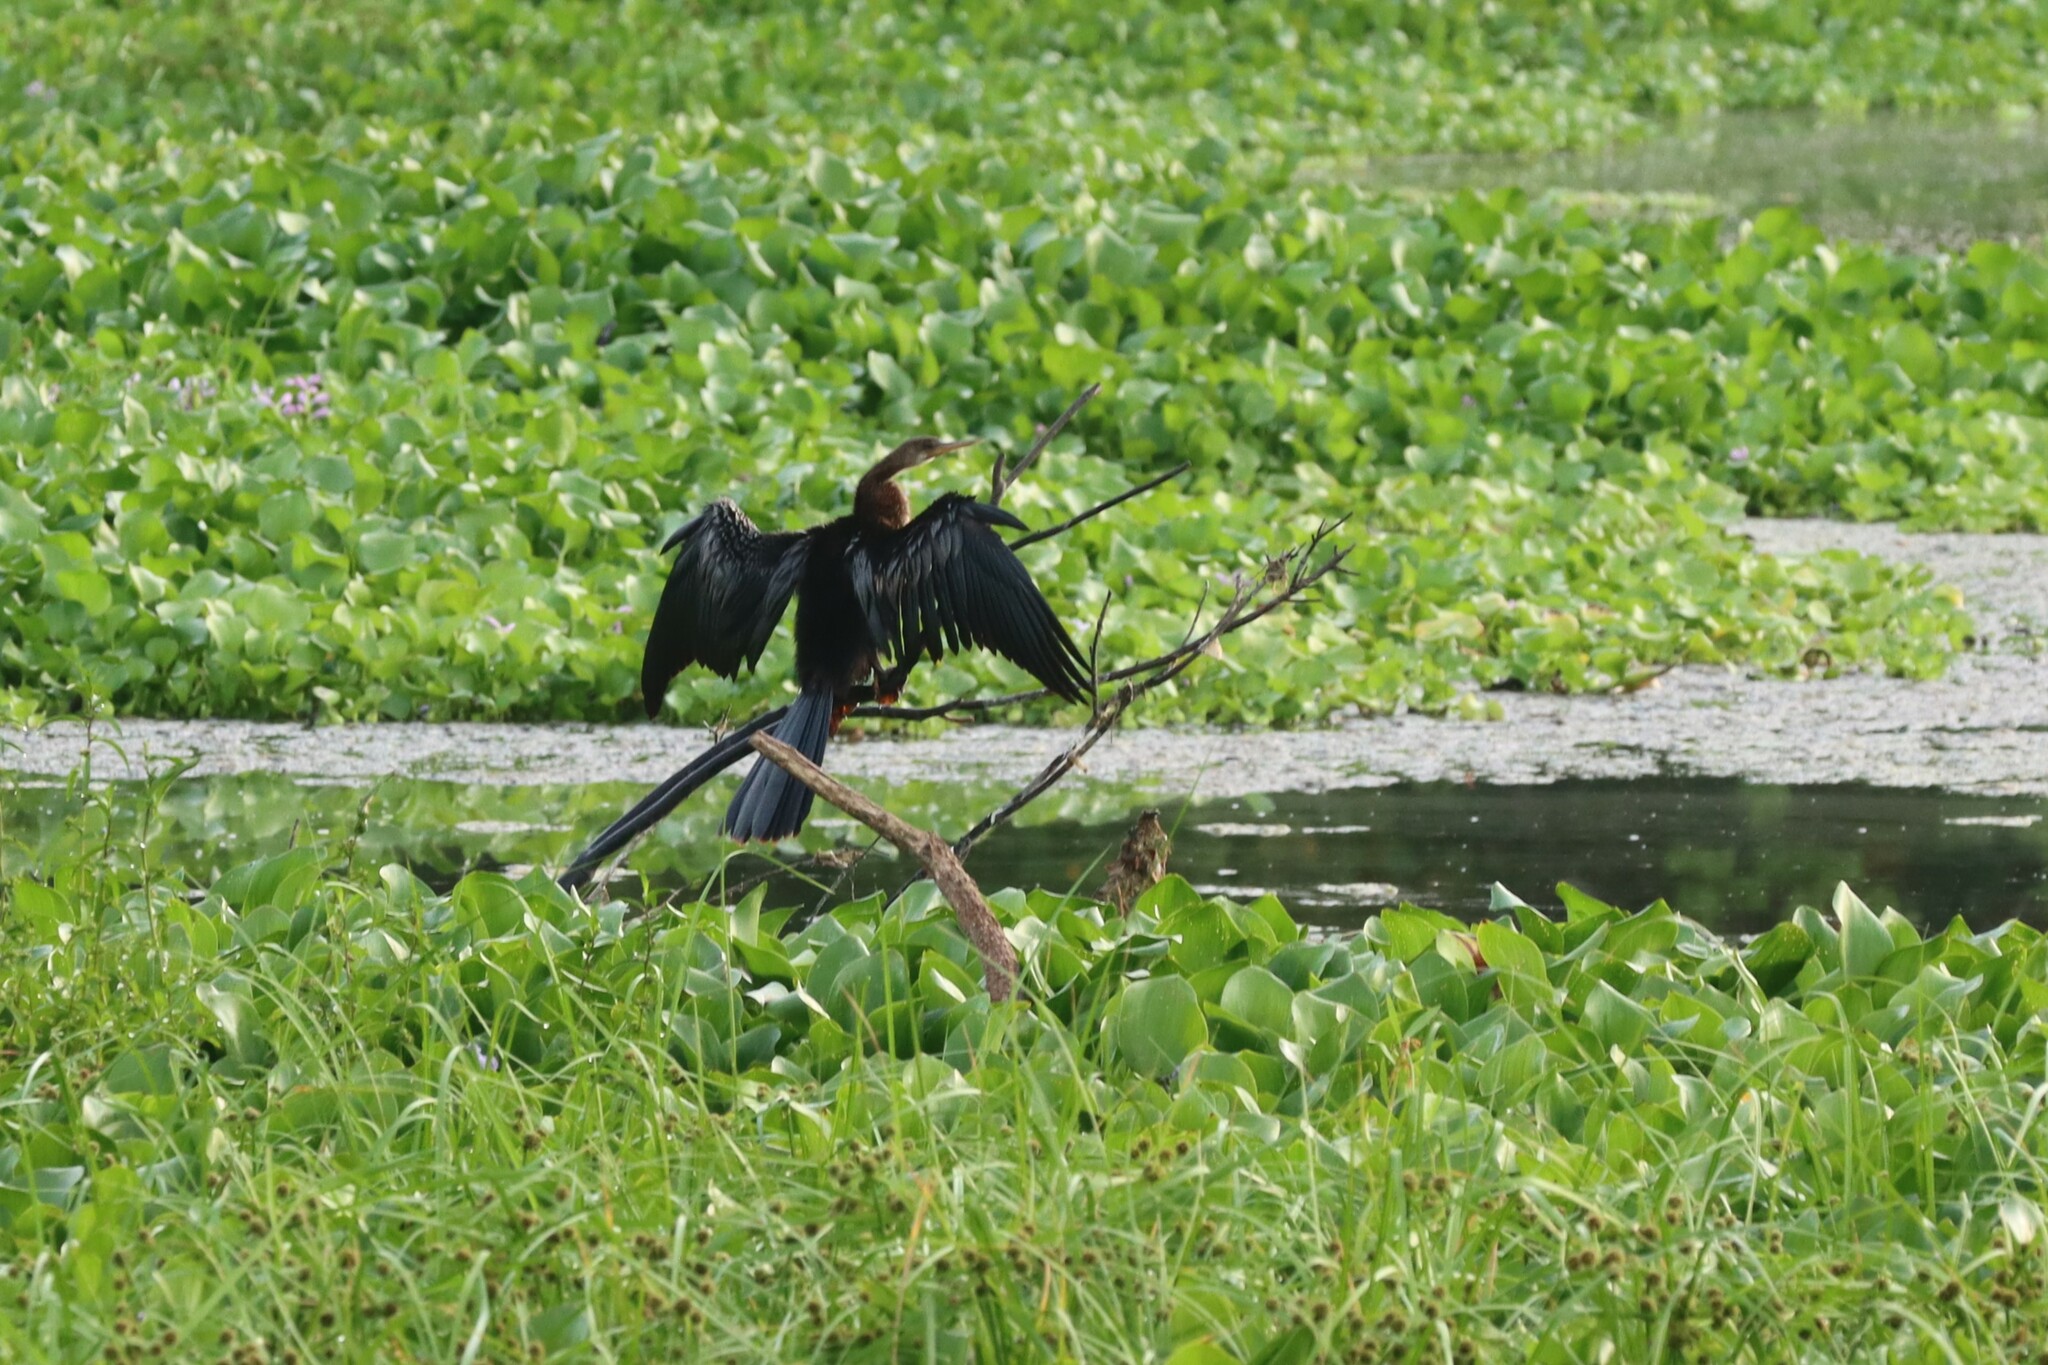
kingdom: Animalia
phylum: Chordata
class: Aves
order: Suliformes
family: Anhingidae
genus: Anhinga
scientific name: Anhinga anhinga
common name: Anhinga
